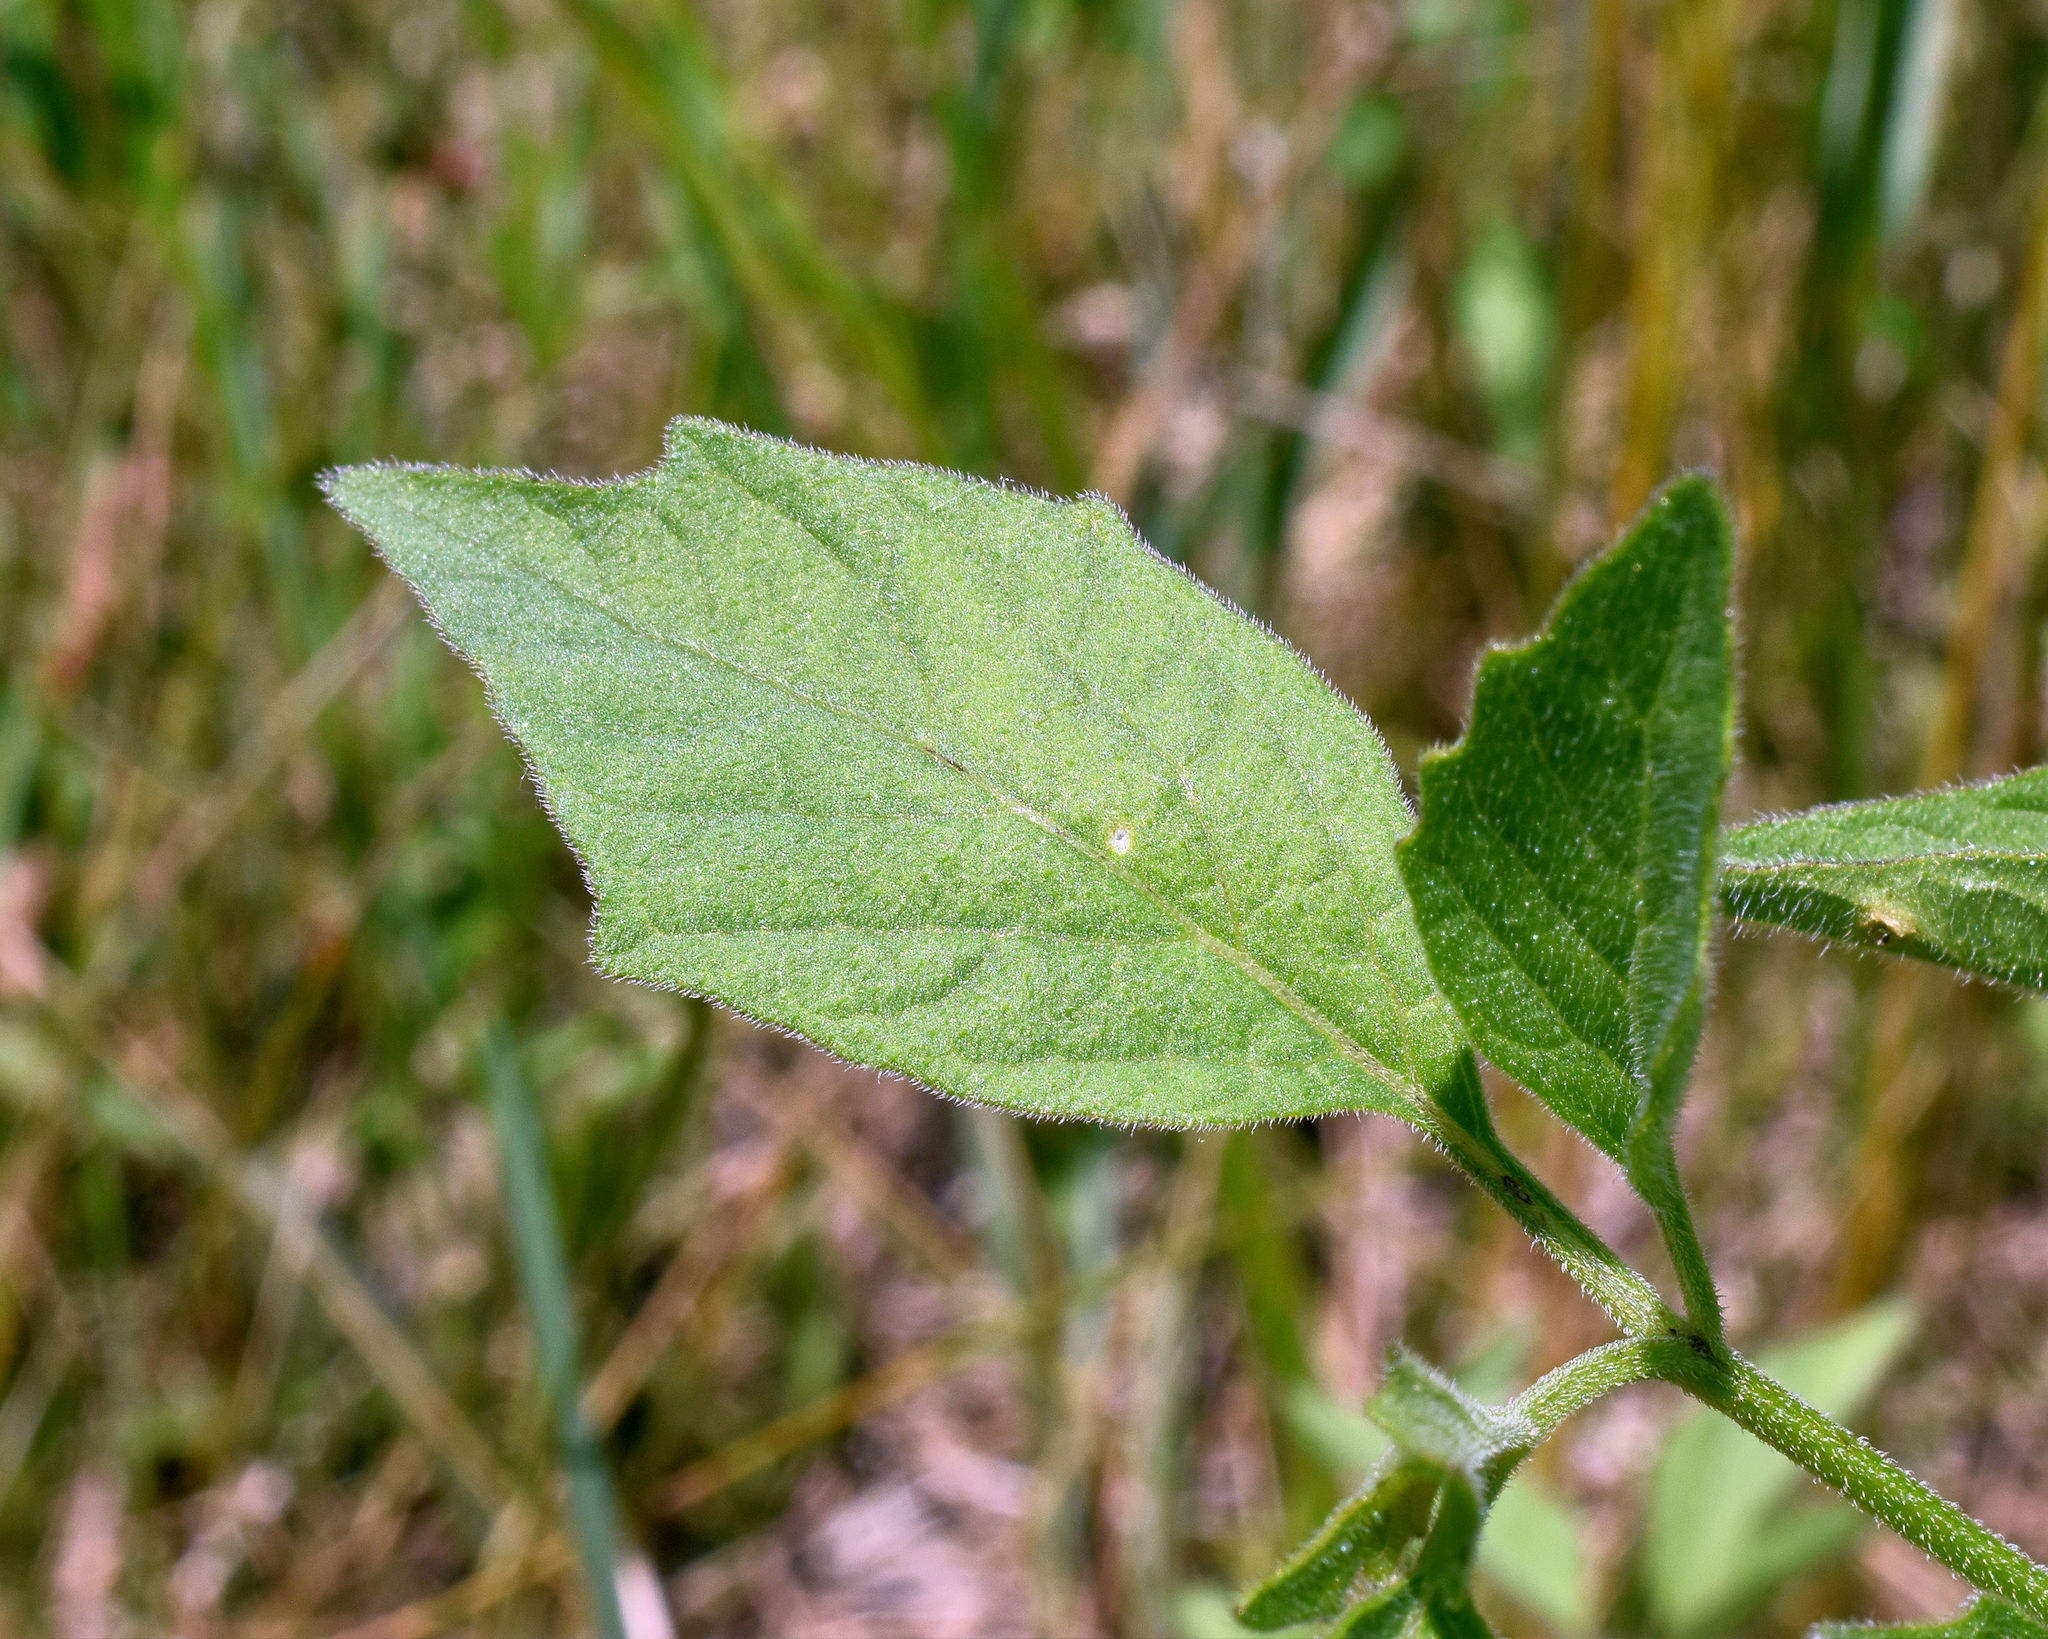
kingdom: Plantae
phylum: Tracheophyta
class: Magnoliopsida
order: Solanales
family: Solanaceae
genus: Physalis
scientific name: Physalis heterophylla
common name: Clammy ground-cherry
